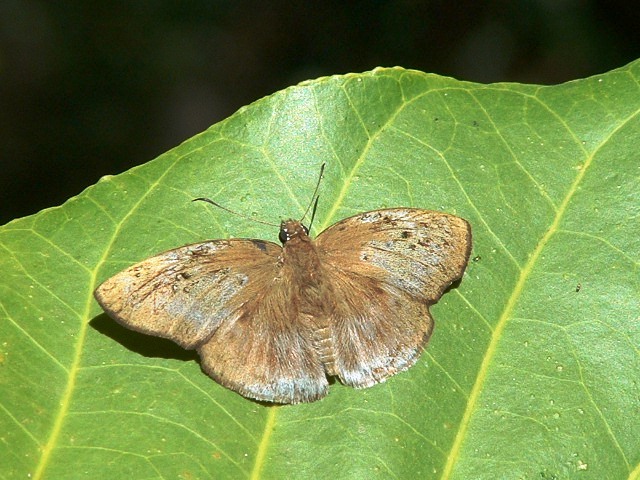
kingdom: Animalia
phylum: Arthropoda
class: Insecta
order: Lepidoptera
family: Hesperiidae
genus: Tagiades
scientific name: Tagiades flesus
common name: Clouded flat
